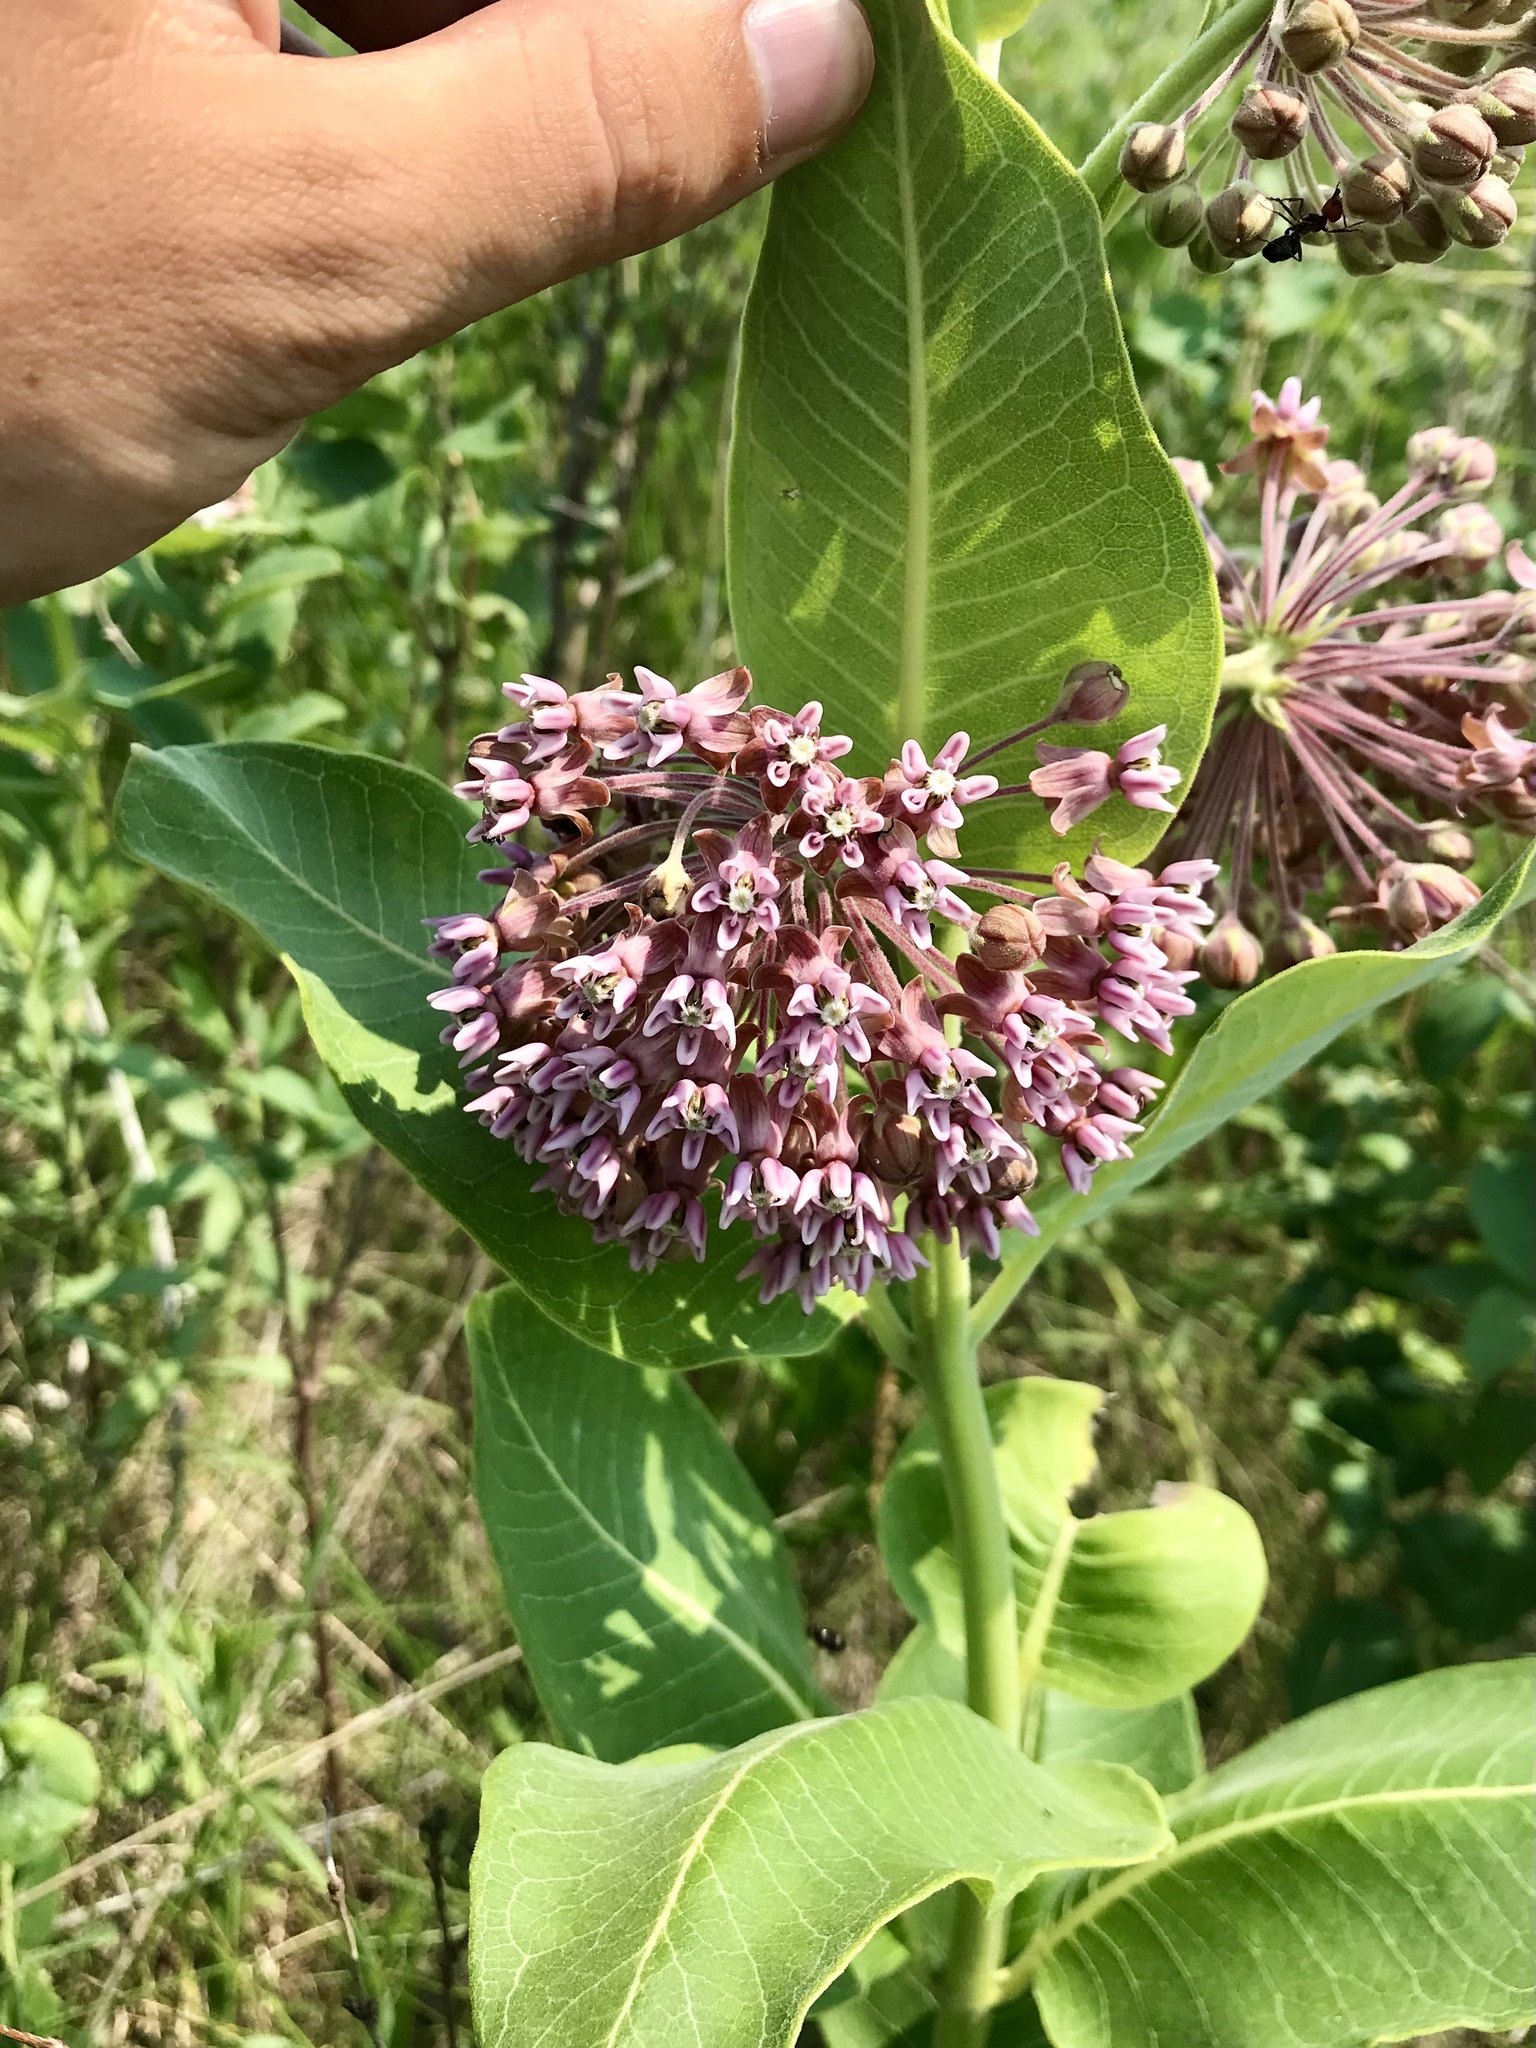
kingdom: Plantae
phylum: Tracheophyta
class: Magnoliopsida
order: Gentianales
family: Apocynaceae
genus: Asclepias
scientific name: Asclepias syriaca
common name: Common milkweed
